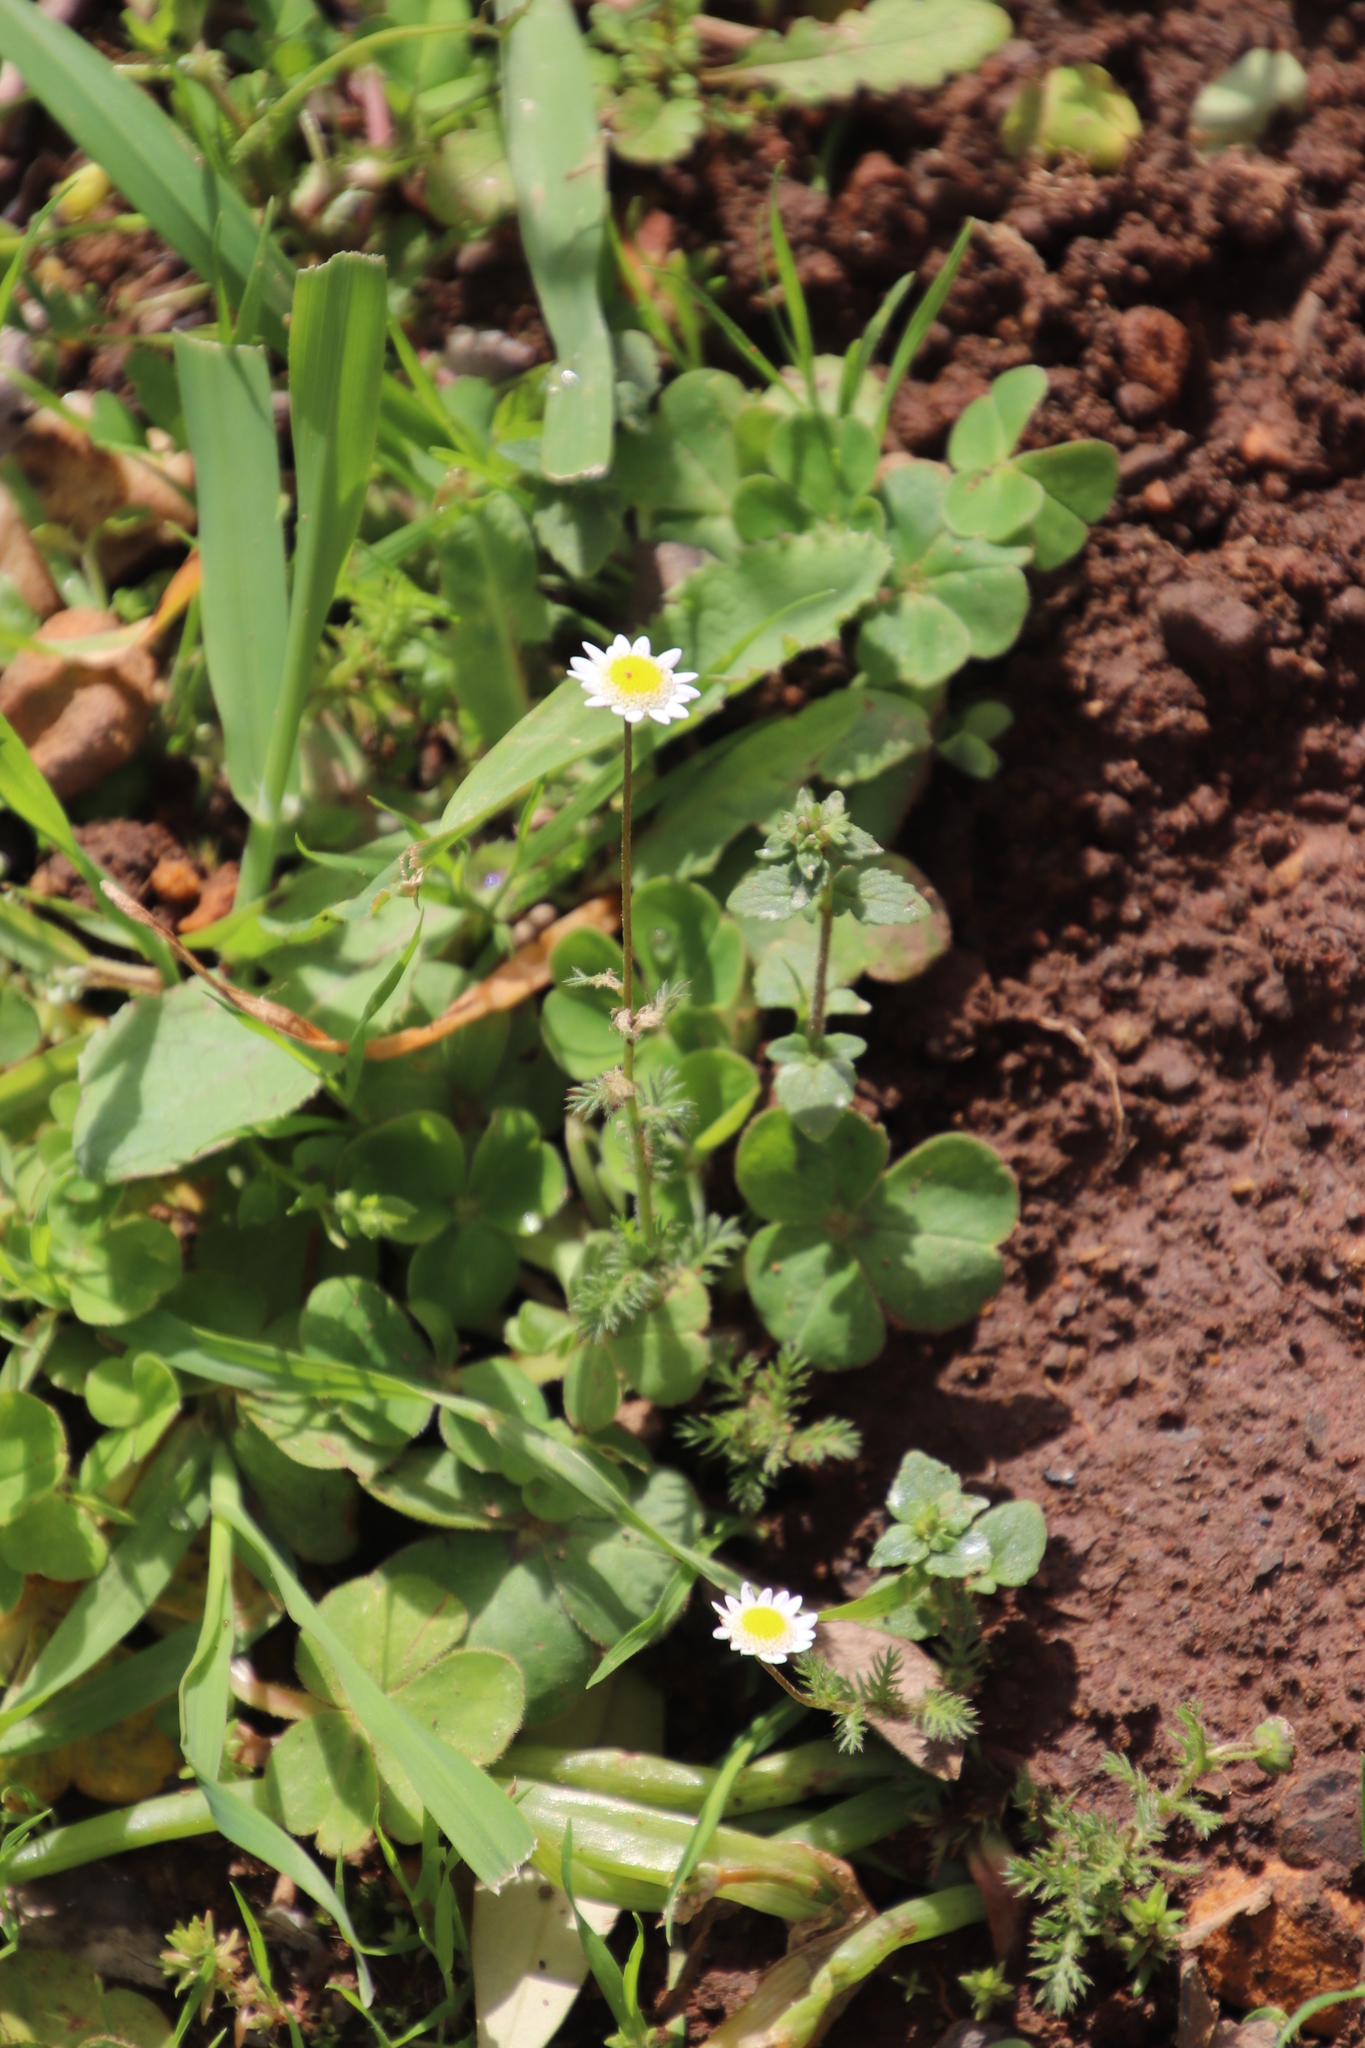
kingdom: Plantae
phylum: Tracheophyta
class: Magnoliopsida
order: Asterales
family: Asteraceae
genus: Cotula
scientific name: Cotula turbinata
